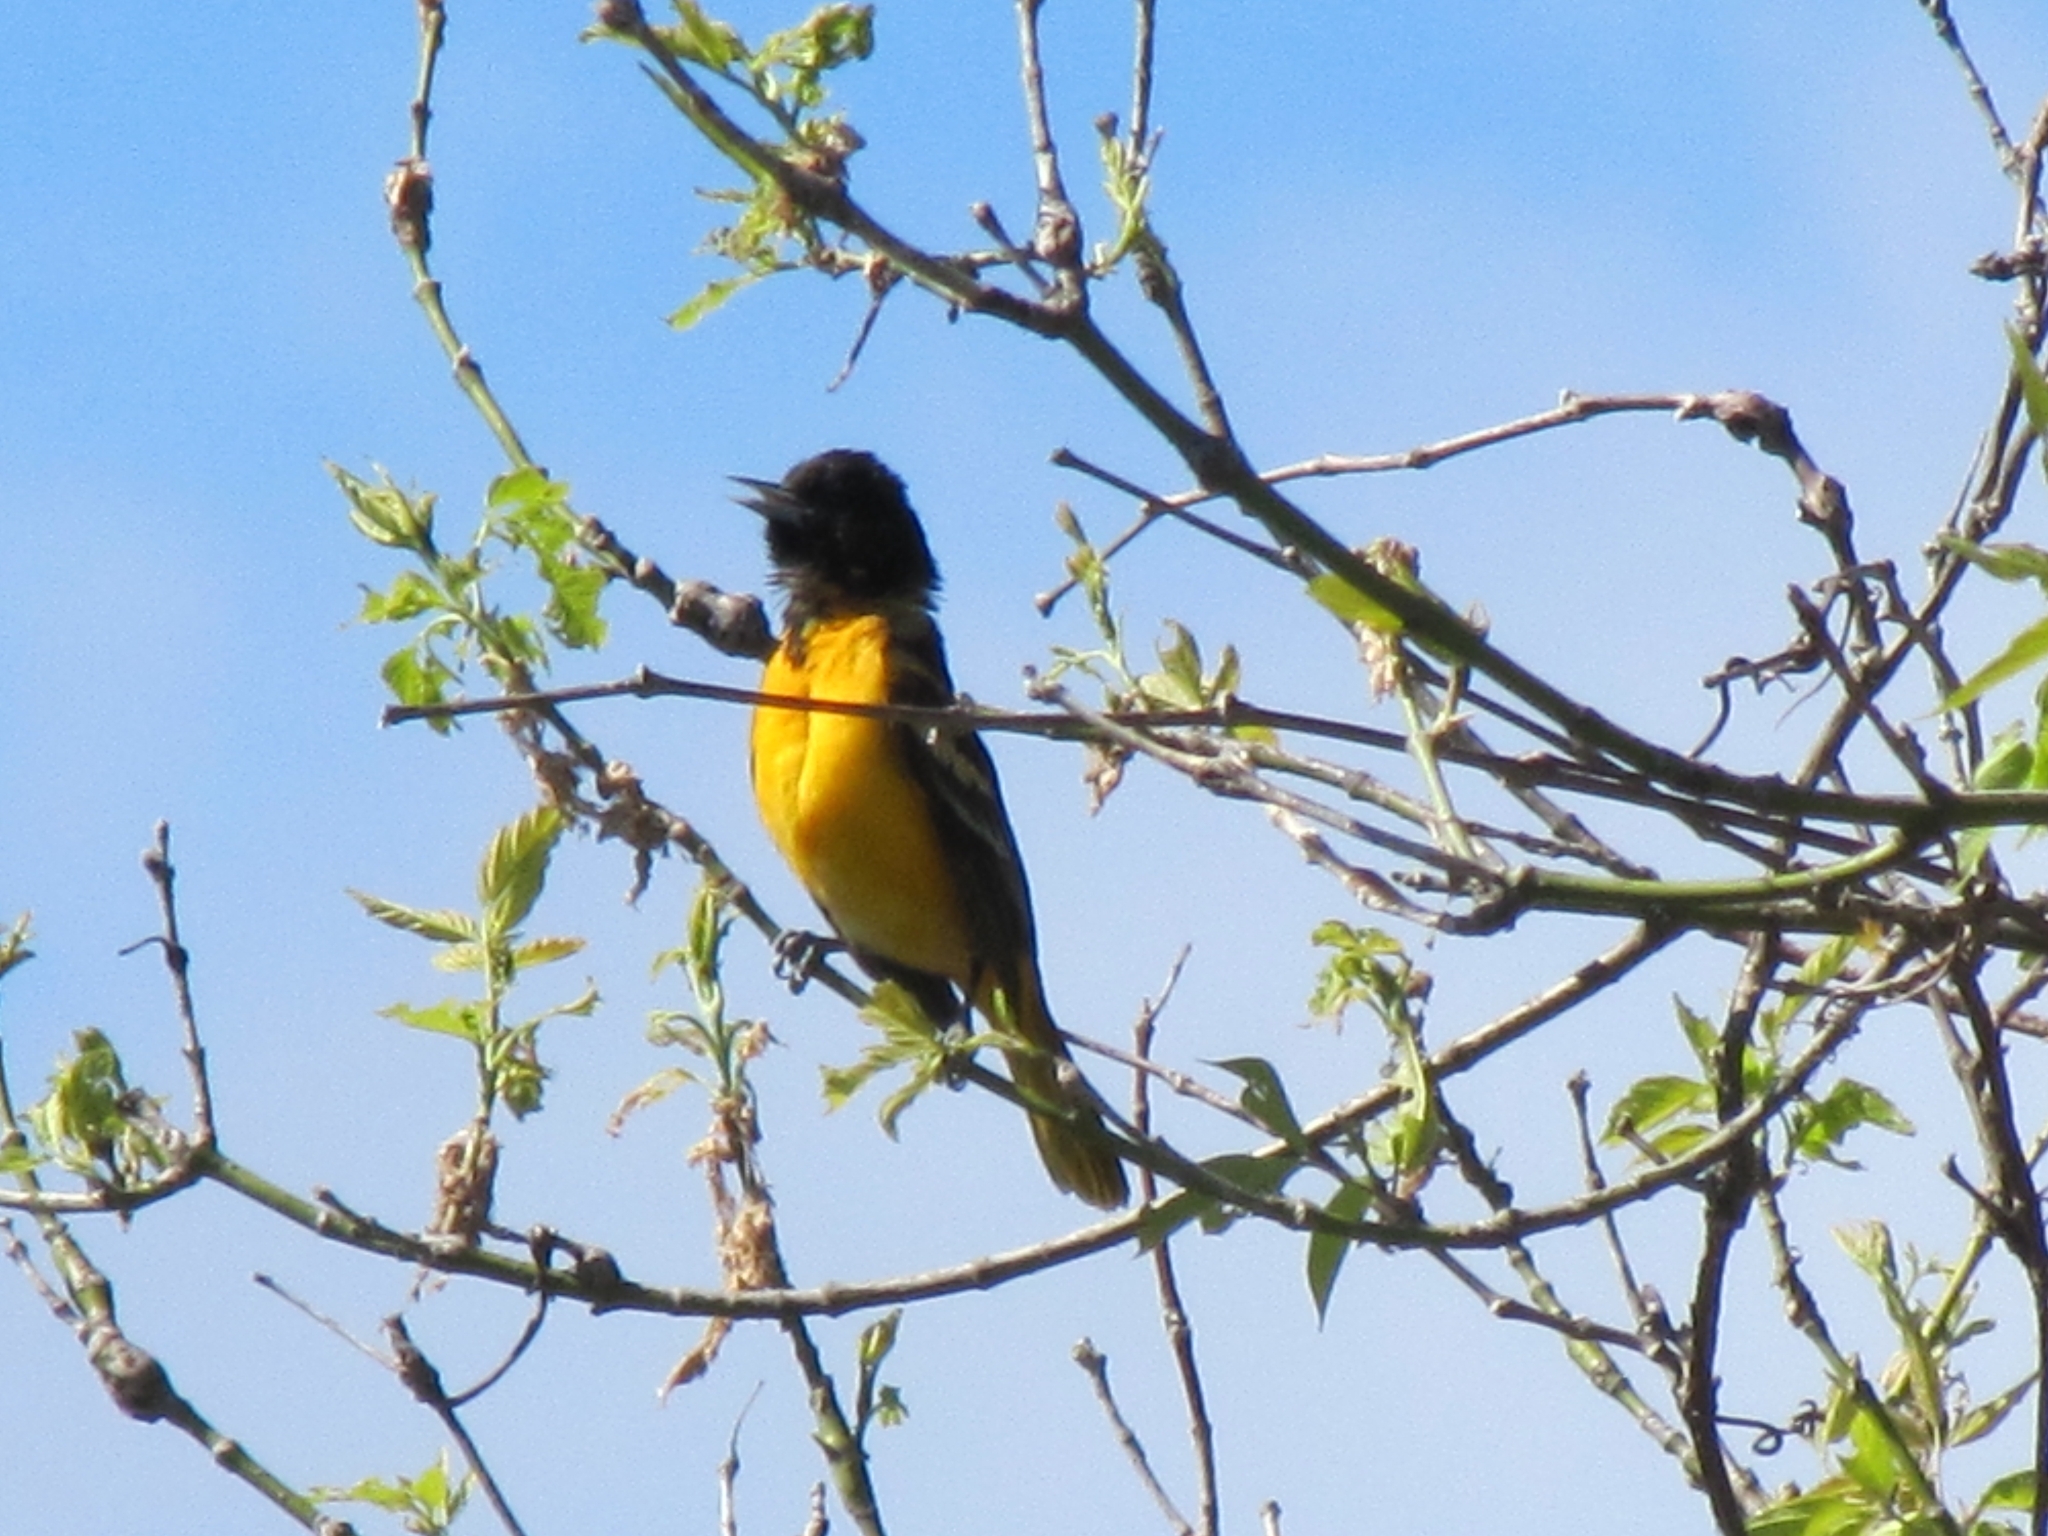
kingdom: Animalia
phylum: Chordata
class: Aves
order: Passeriformes
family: Icteridae
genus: Icterus
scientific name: Icterus galbula
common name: Baltimore oriole
